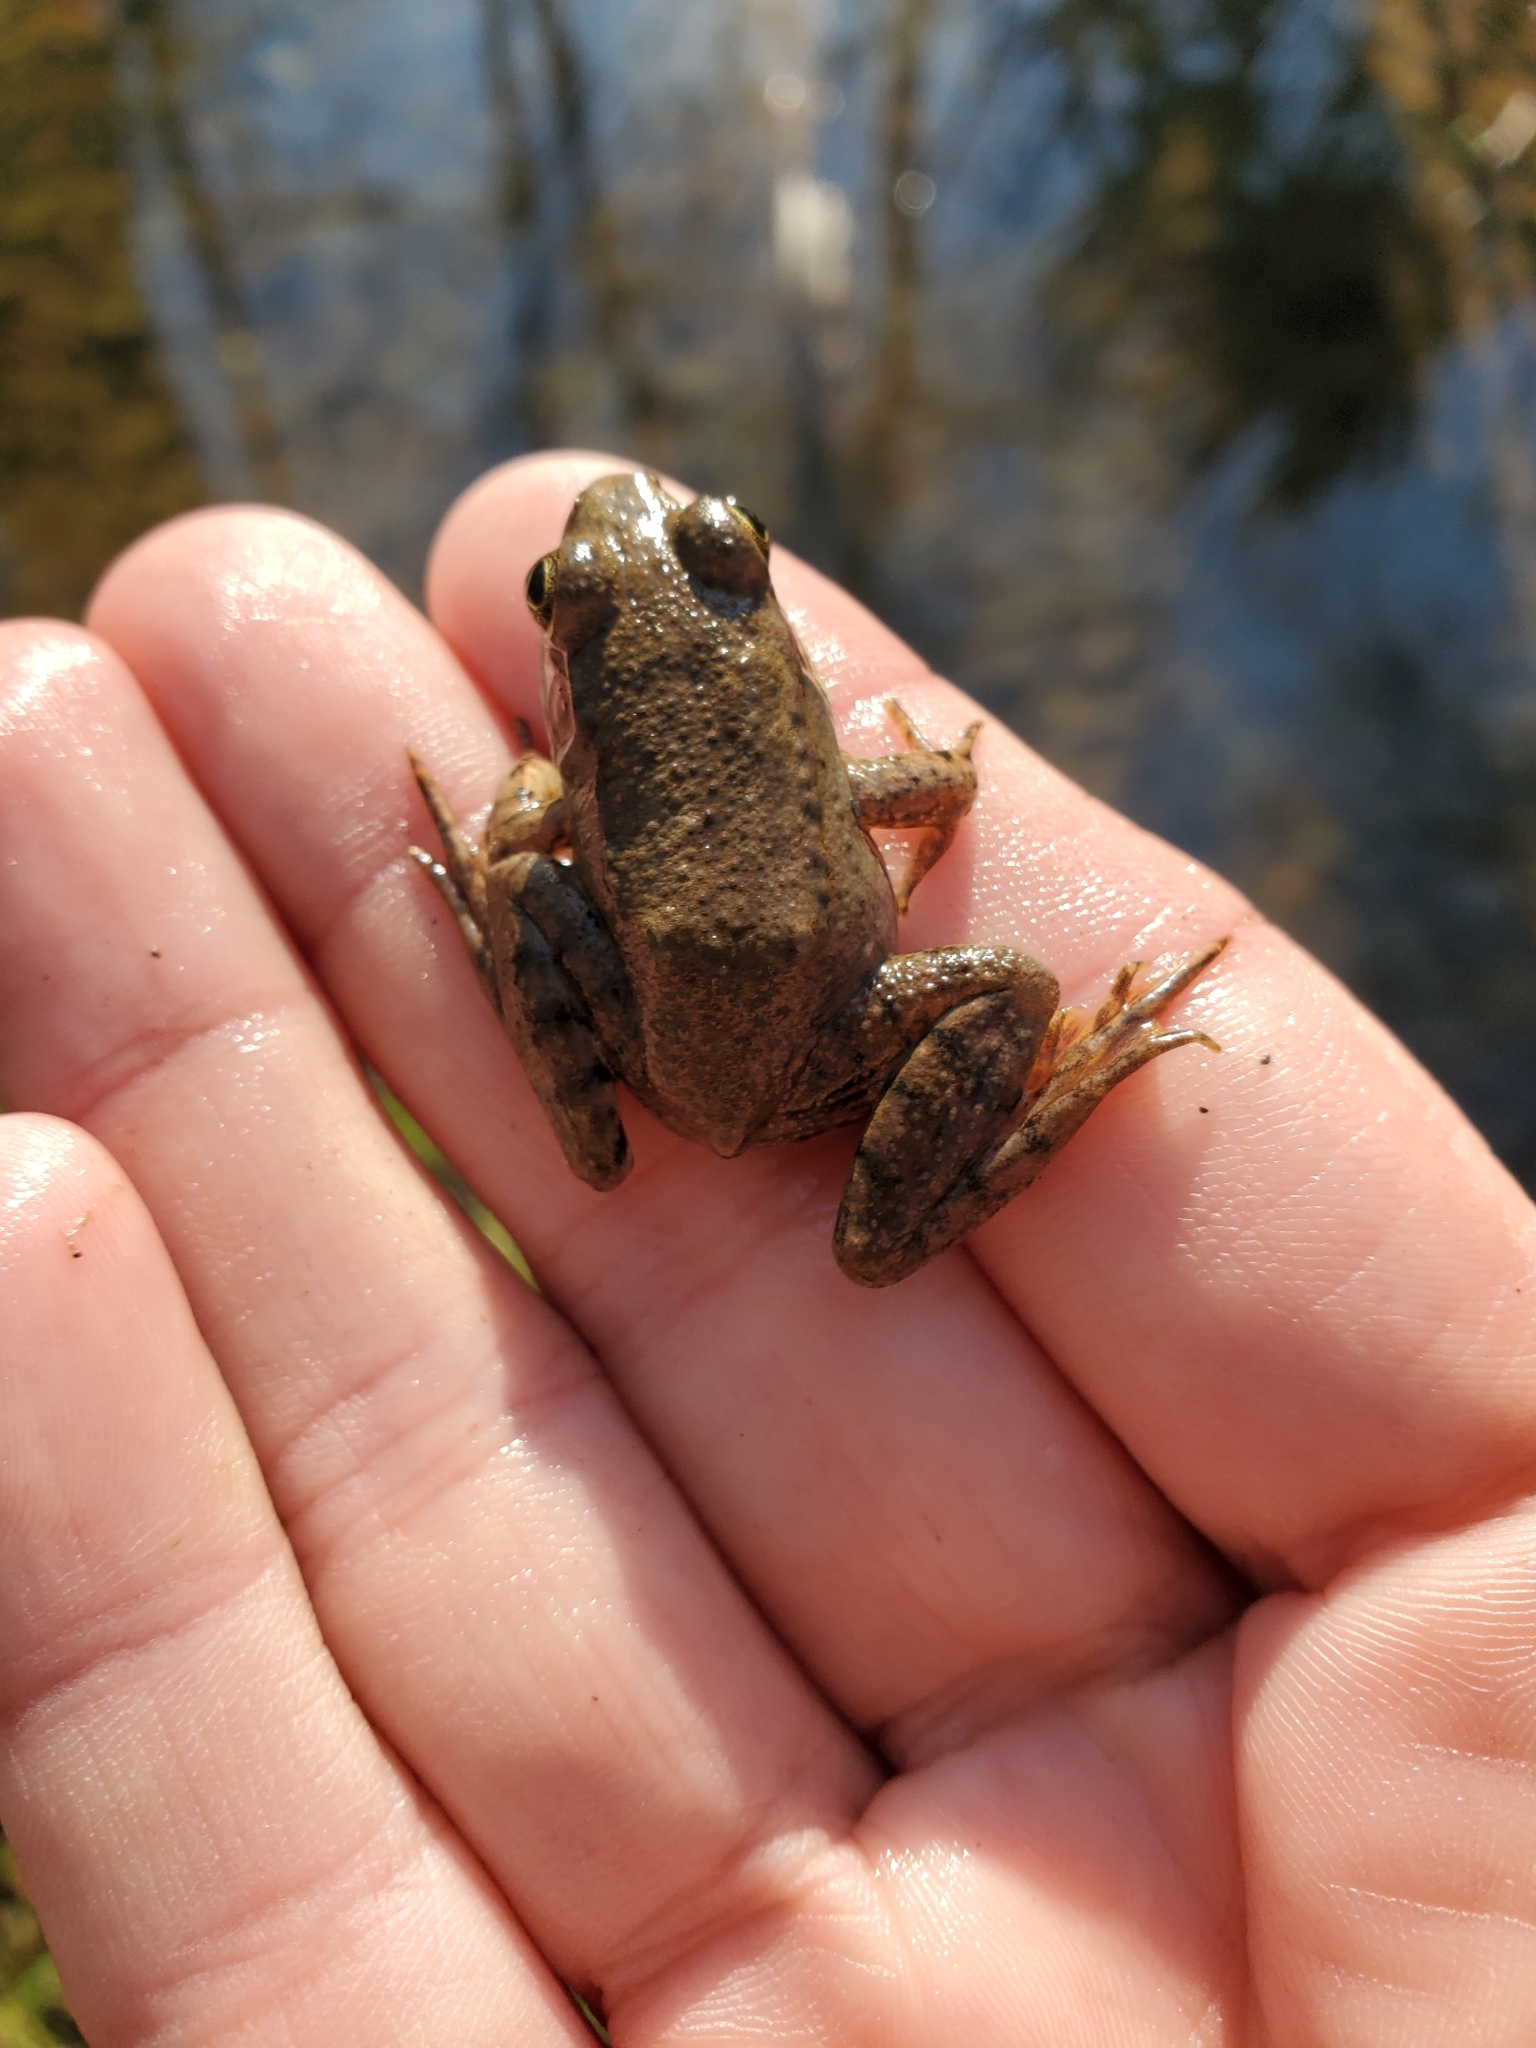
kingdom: Animalia
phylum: Chordata
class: Amphibia
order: Anura
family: Ranidae
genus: Lithobates
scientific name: Lithobates clamitans
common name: Green frog
